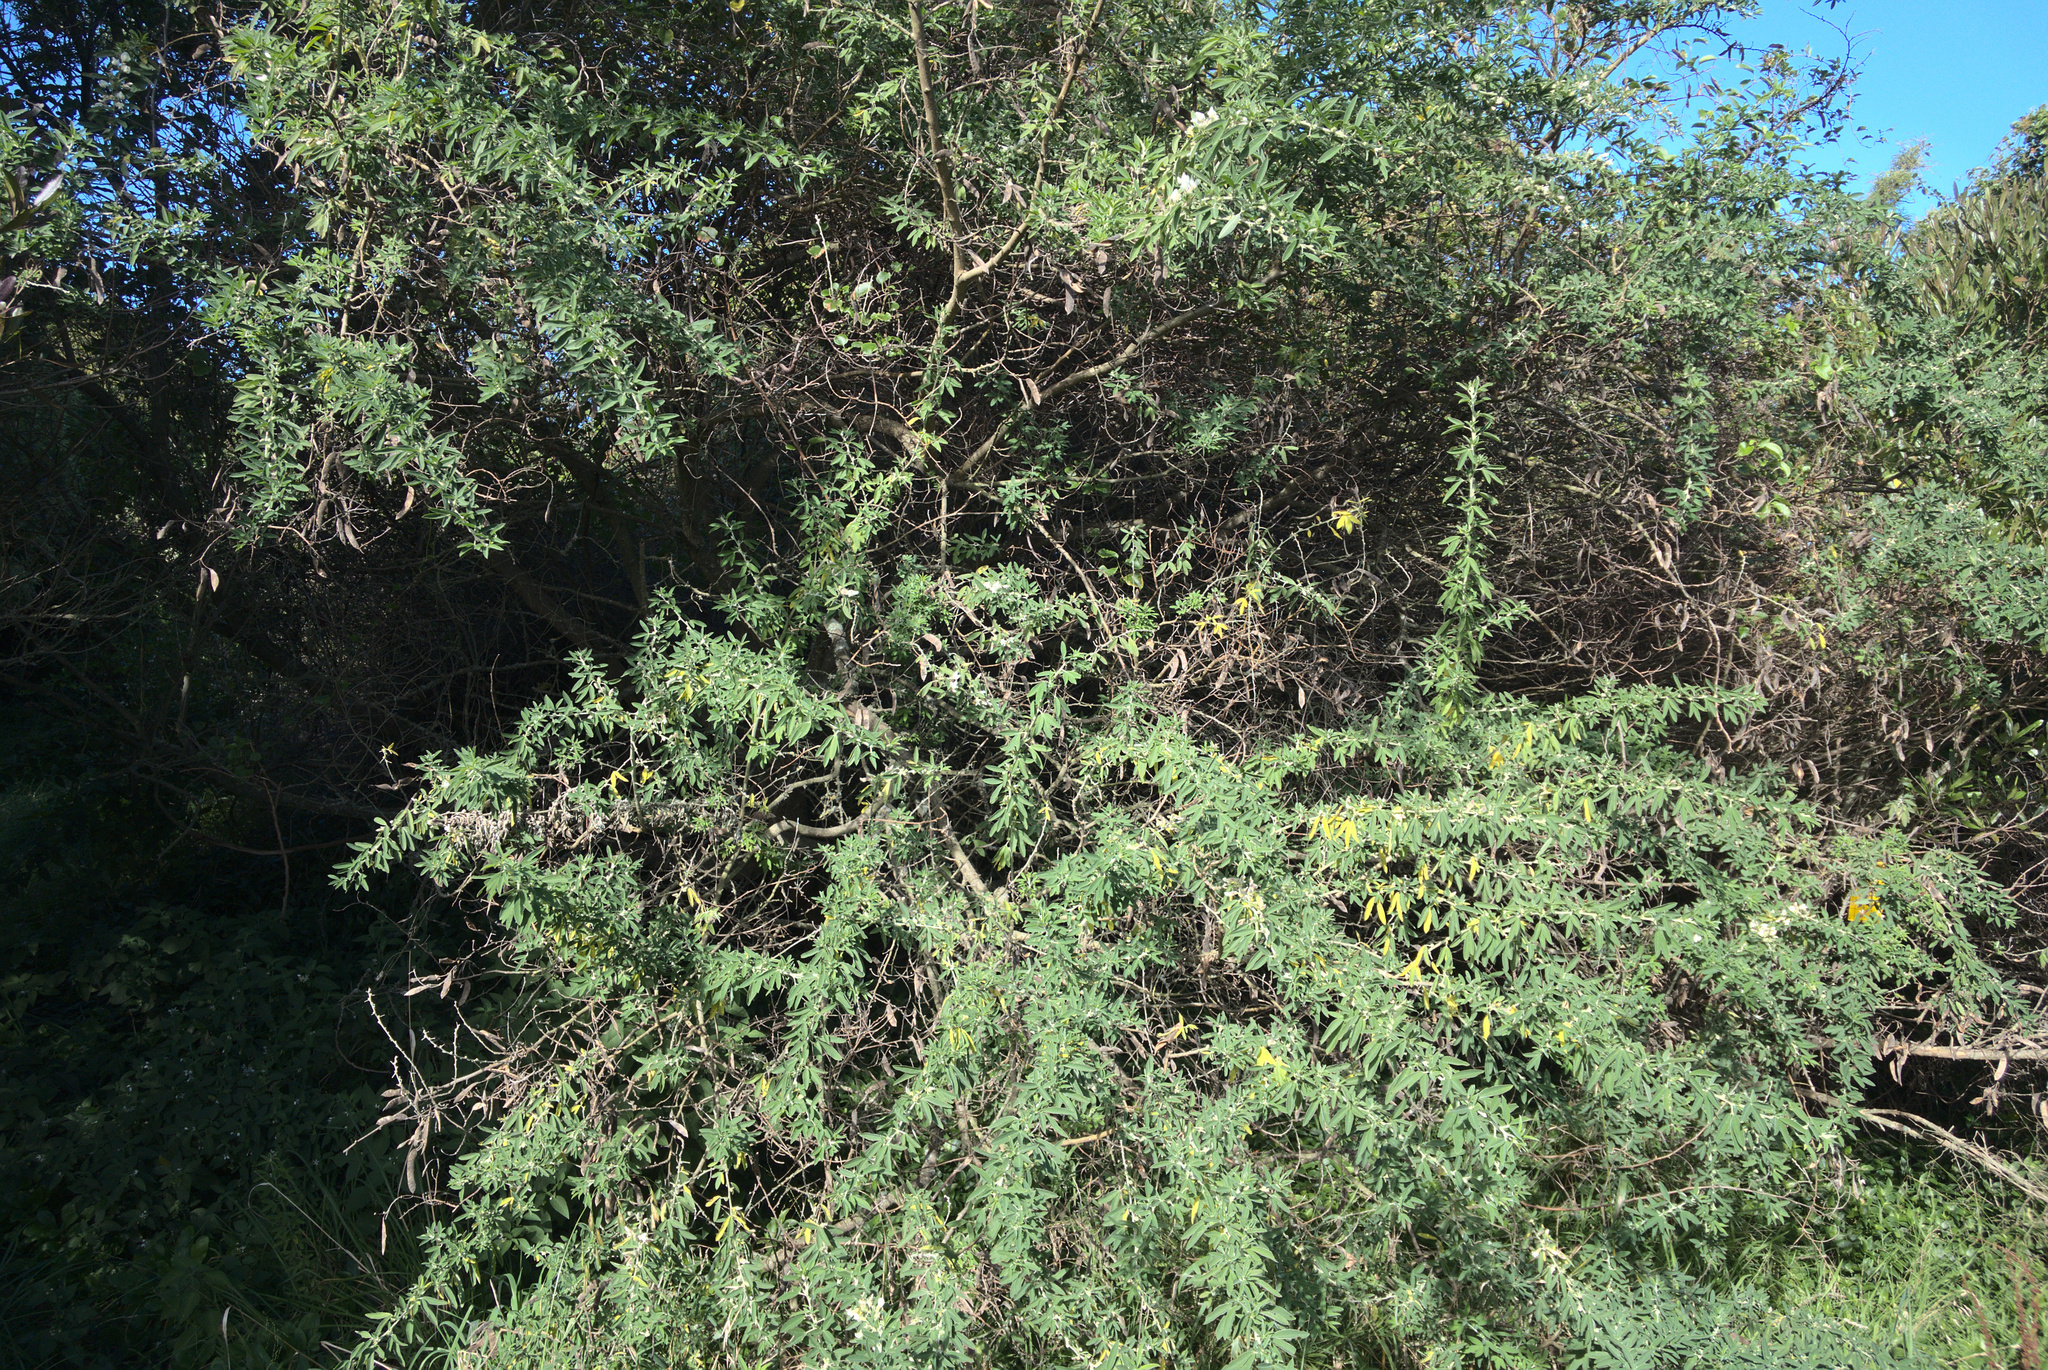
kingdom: Plantae
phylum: Tracheophyta
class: Magnoliopsida
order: Fabales
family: Fabaceae
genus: Chamaecytisus
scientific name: Chamaecytisus prolifer
